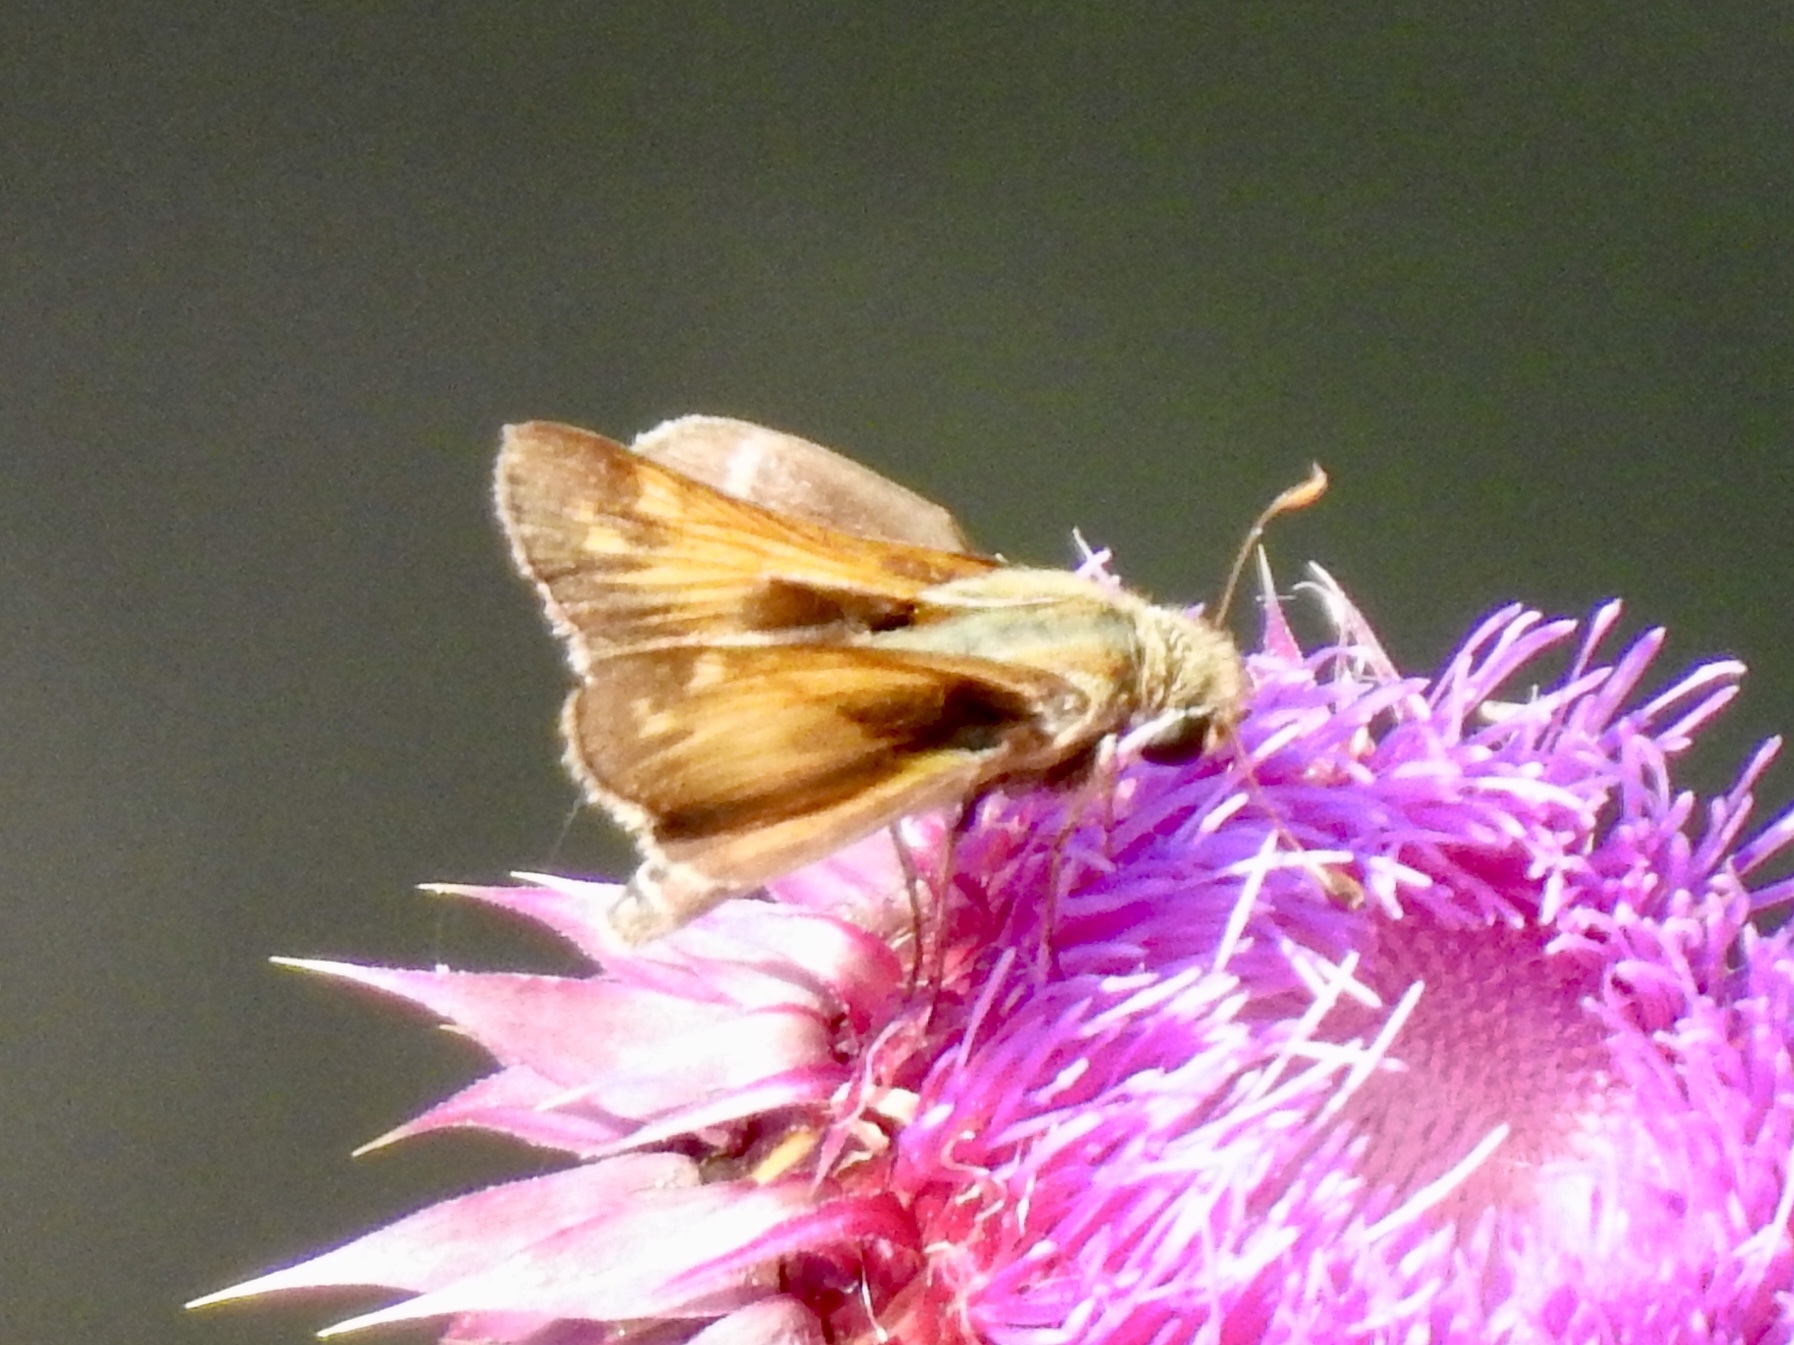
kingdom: Animalia
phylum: Arthropoda
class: Insecta
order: Lepidoptera
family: Hesperiidae
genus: Atalopedes
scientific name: Atalopedes
